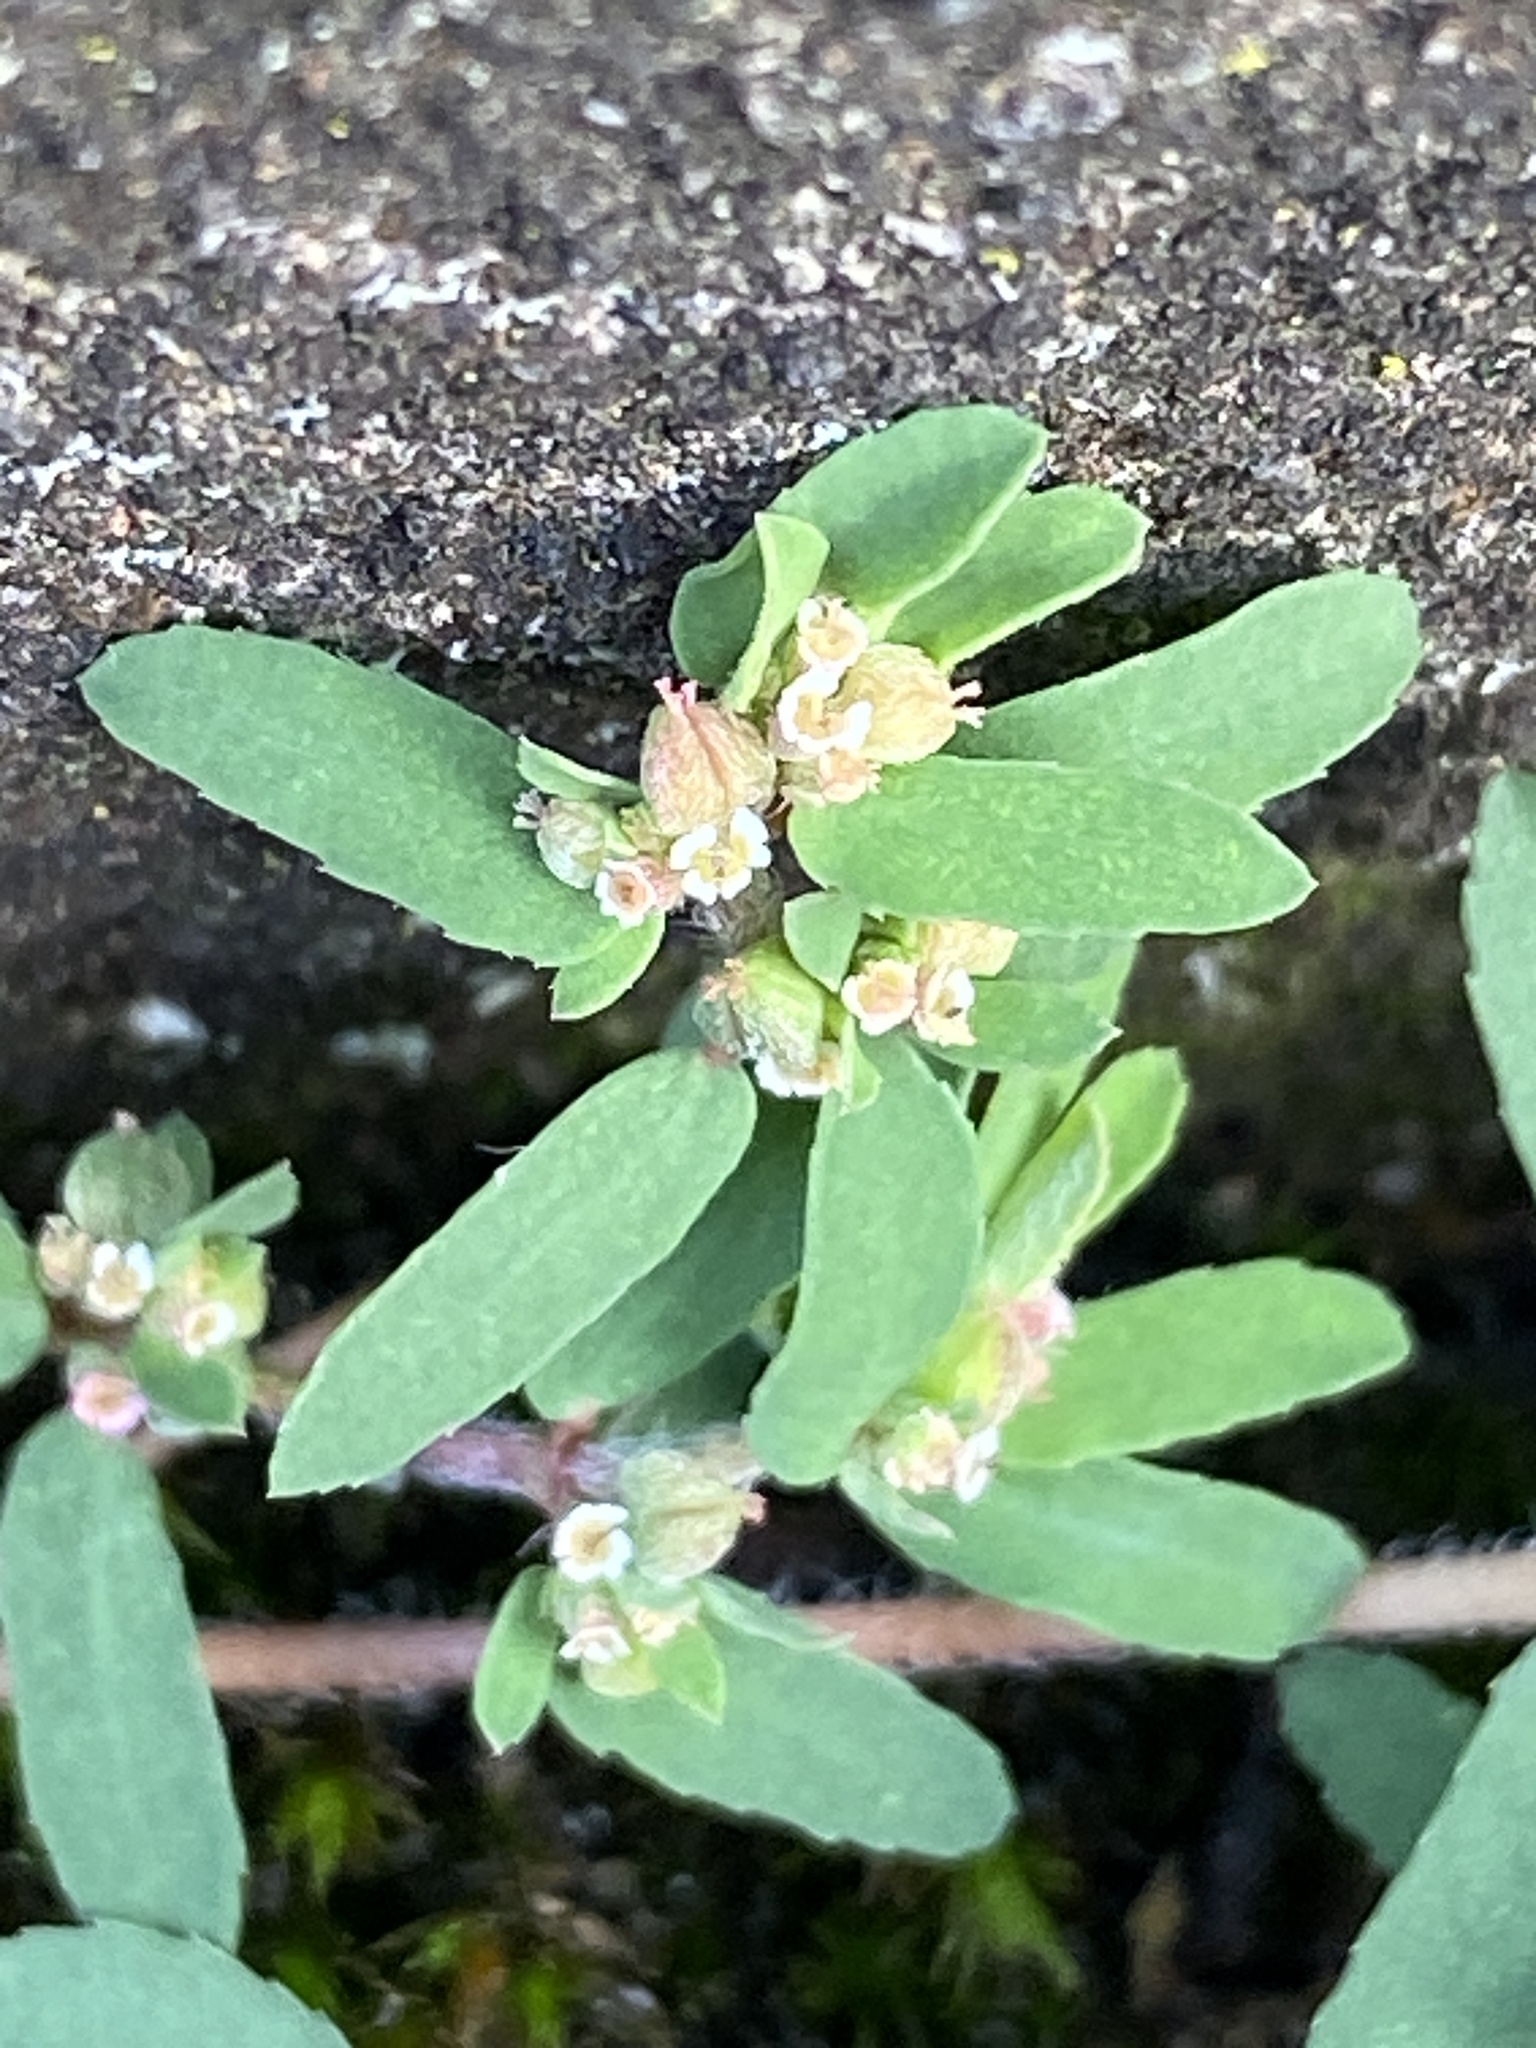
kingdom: Plantae
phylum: Tracheophyta
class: Magnoliopsida
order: Malpighiales
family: Euphorbiaceae
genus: Euphorbia
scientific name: Euphorbia maculata
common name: Spotted spurge
